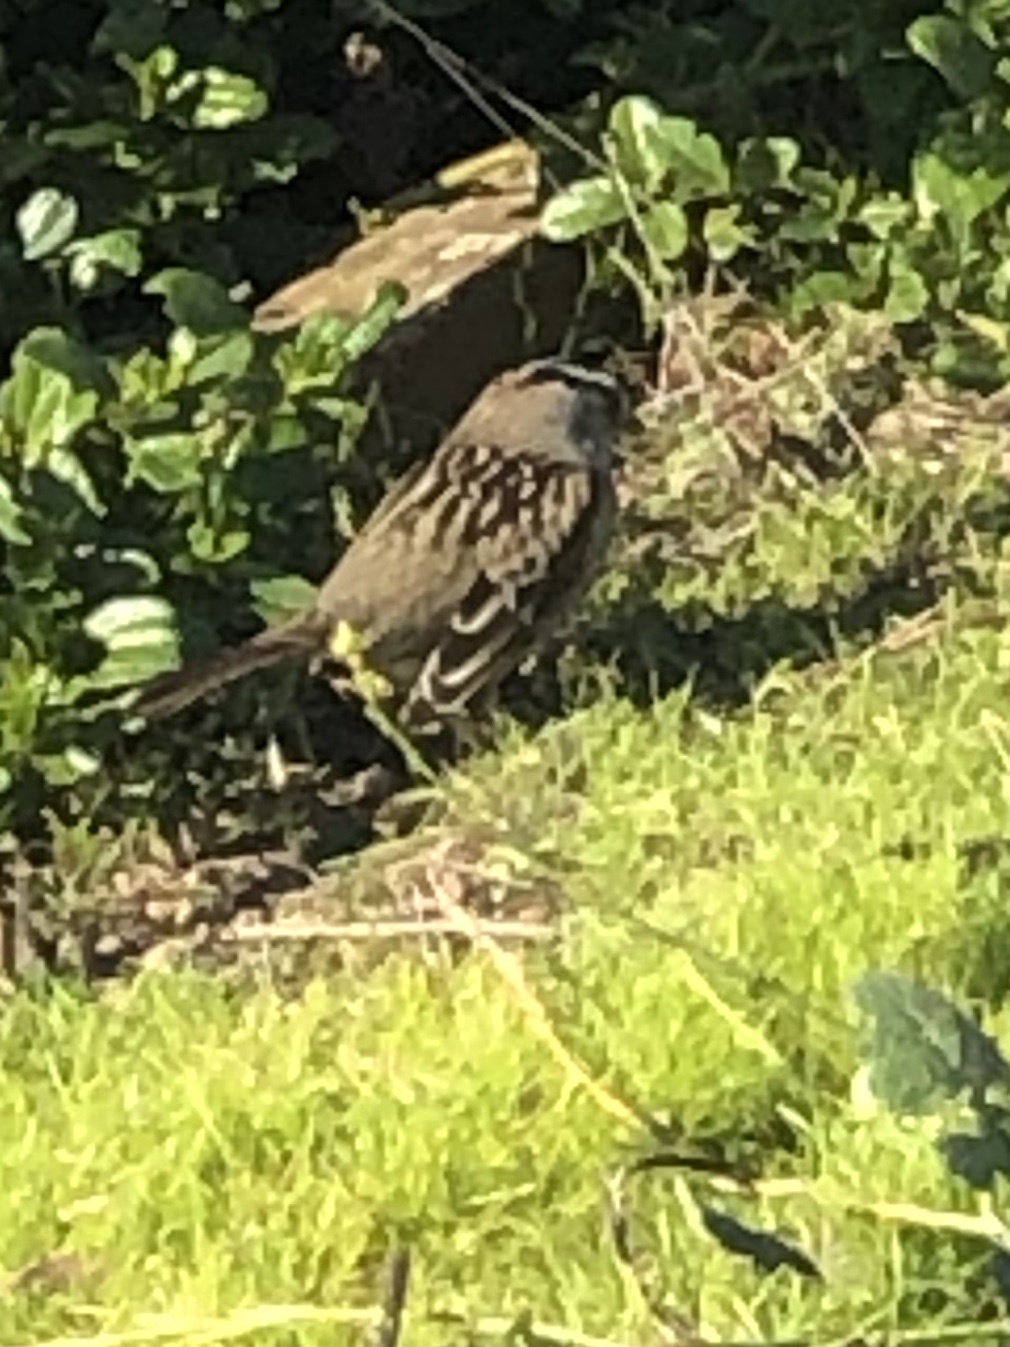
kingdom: Animalia
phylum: Chordata
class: Aves
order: Passeriformes
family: Passerellidae
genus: Zonotrichia
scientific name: Zonotrichia leucophrys
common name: White-crowned sparrow
